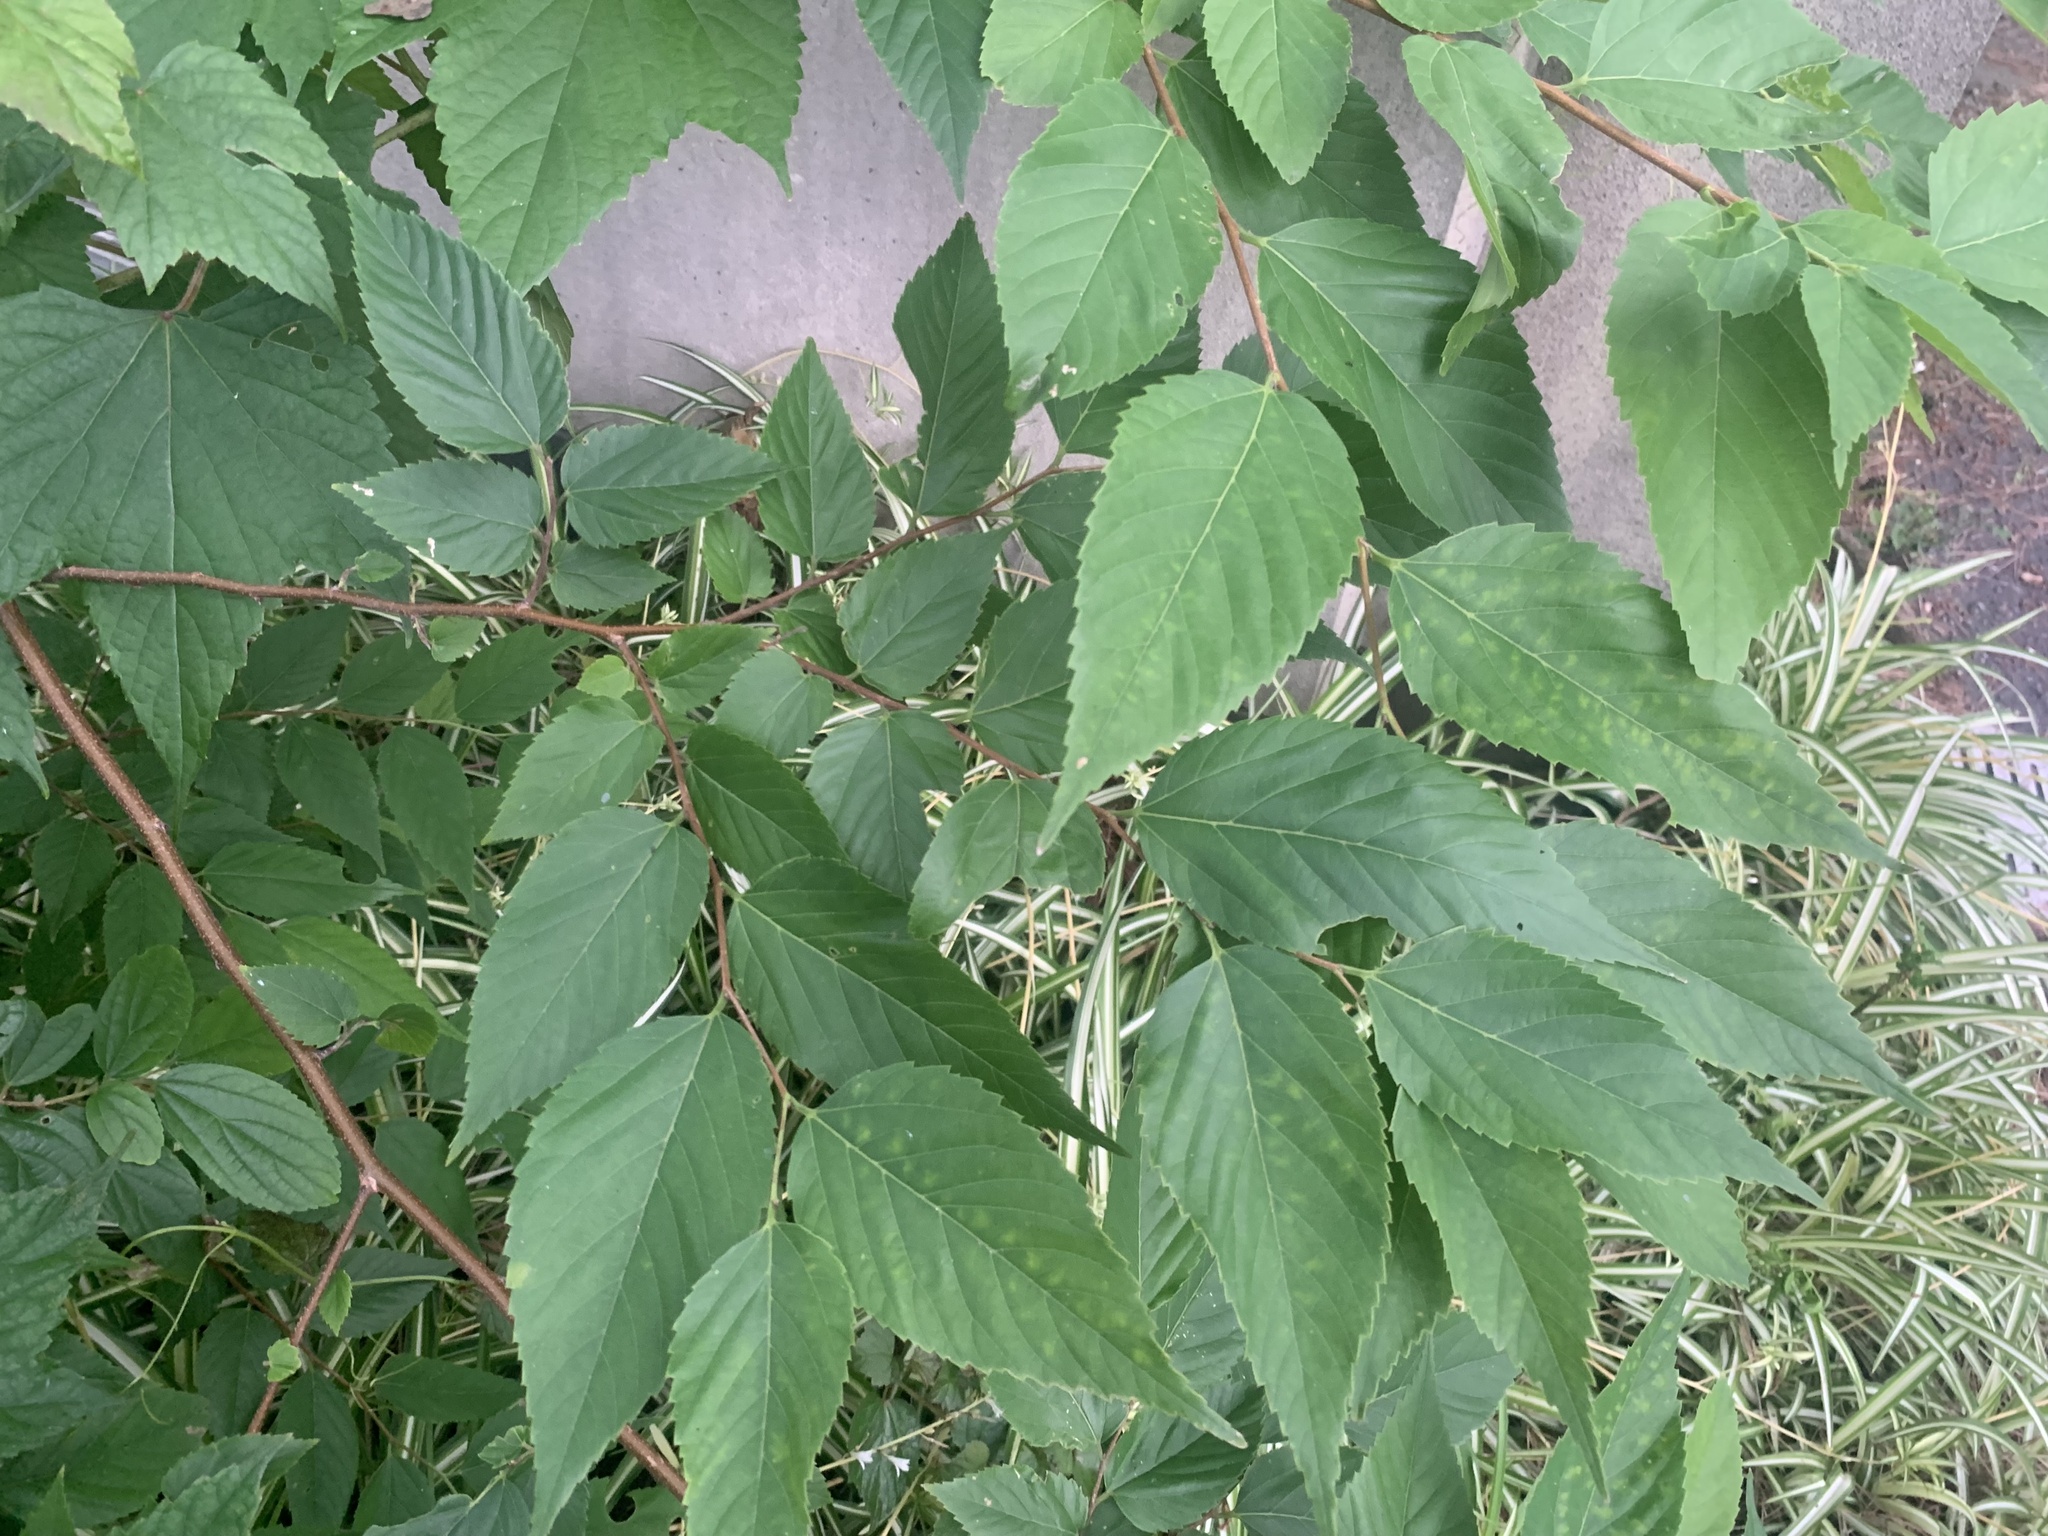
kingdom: Plantae
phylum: Tracheophyta
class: Magnoliopsida
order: Rosales
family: Cannabaceae
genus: Aphananthe
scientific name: Aphananthe aspera
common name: Mukutree
